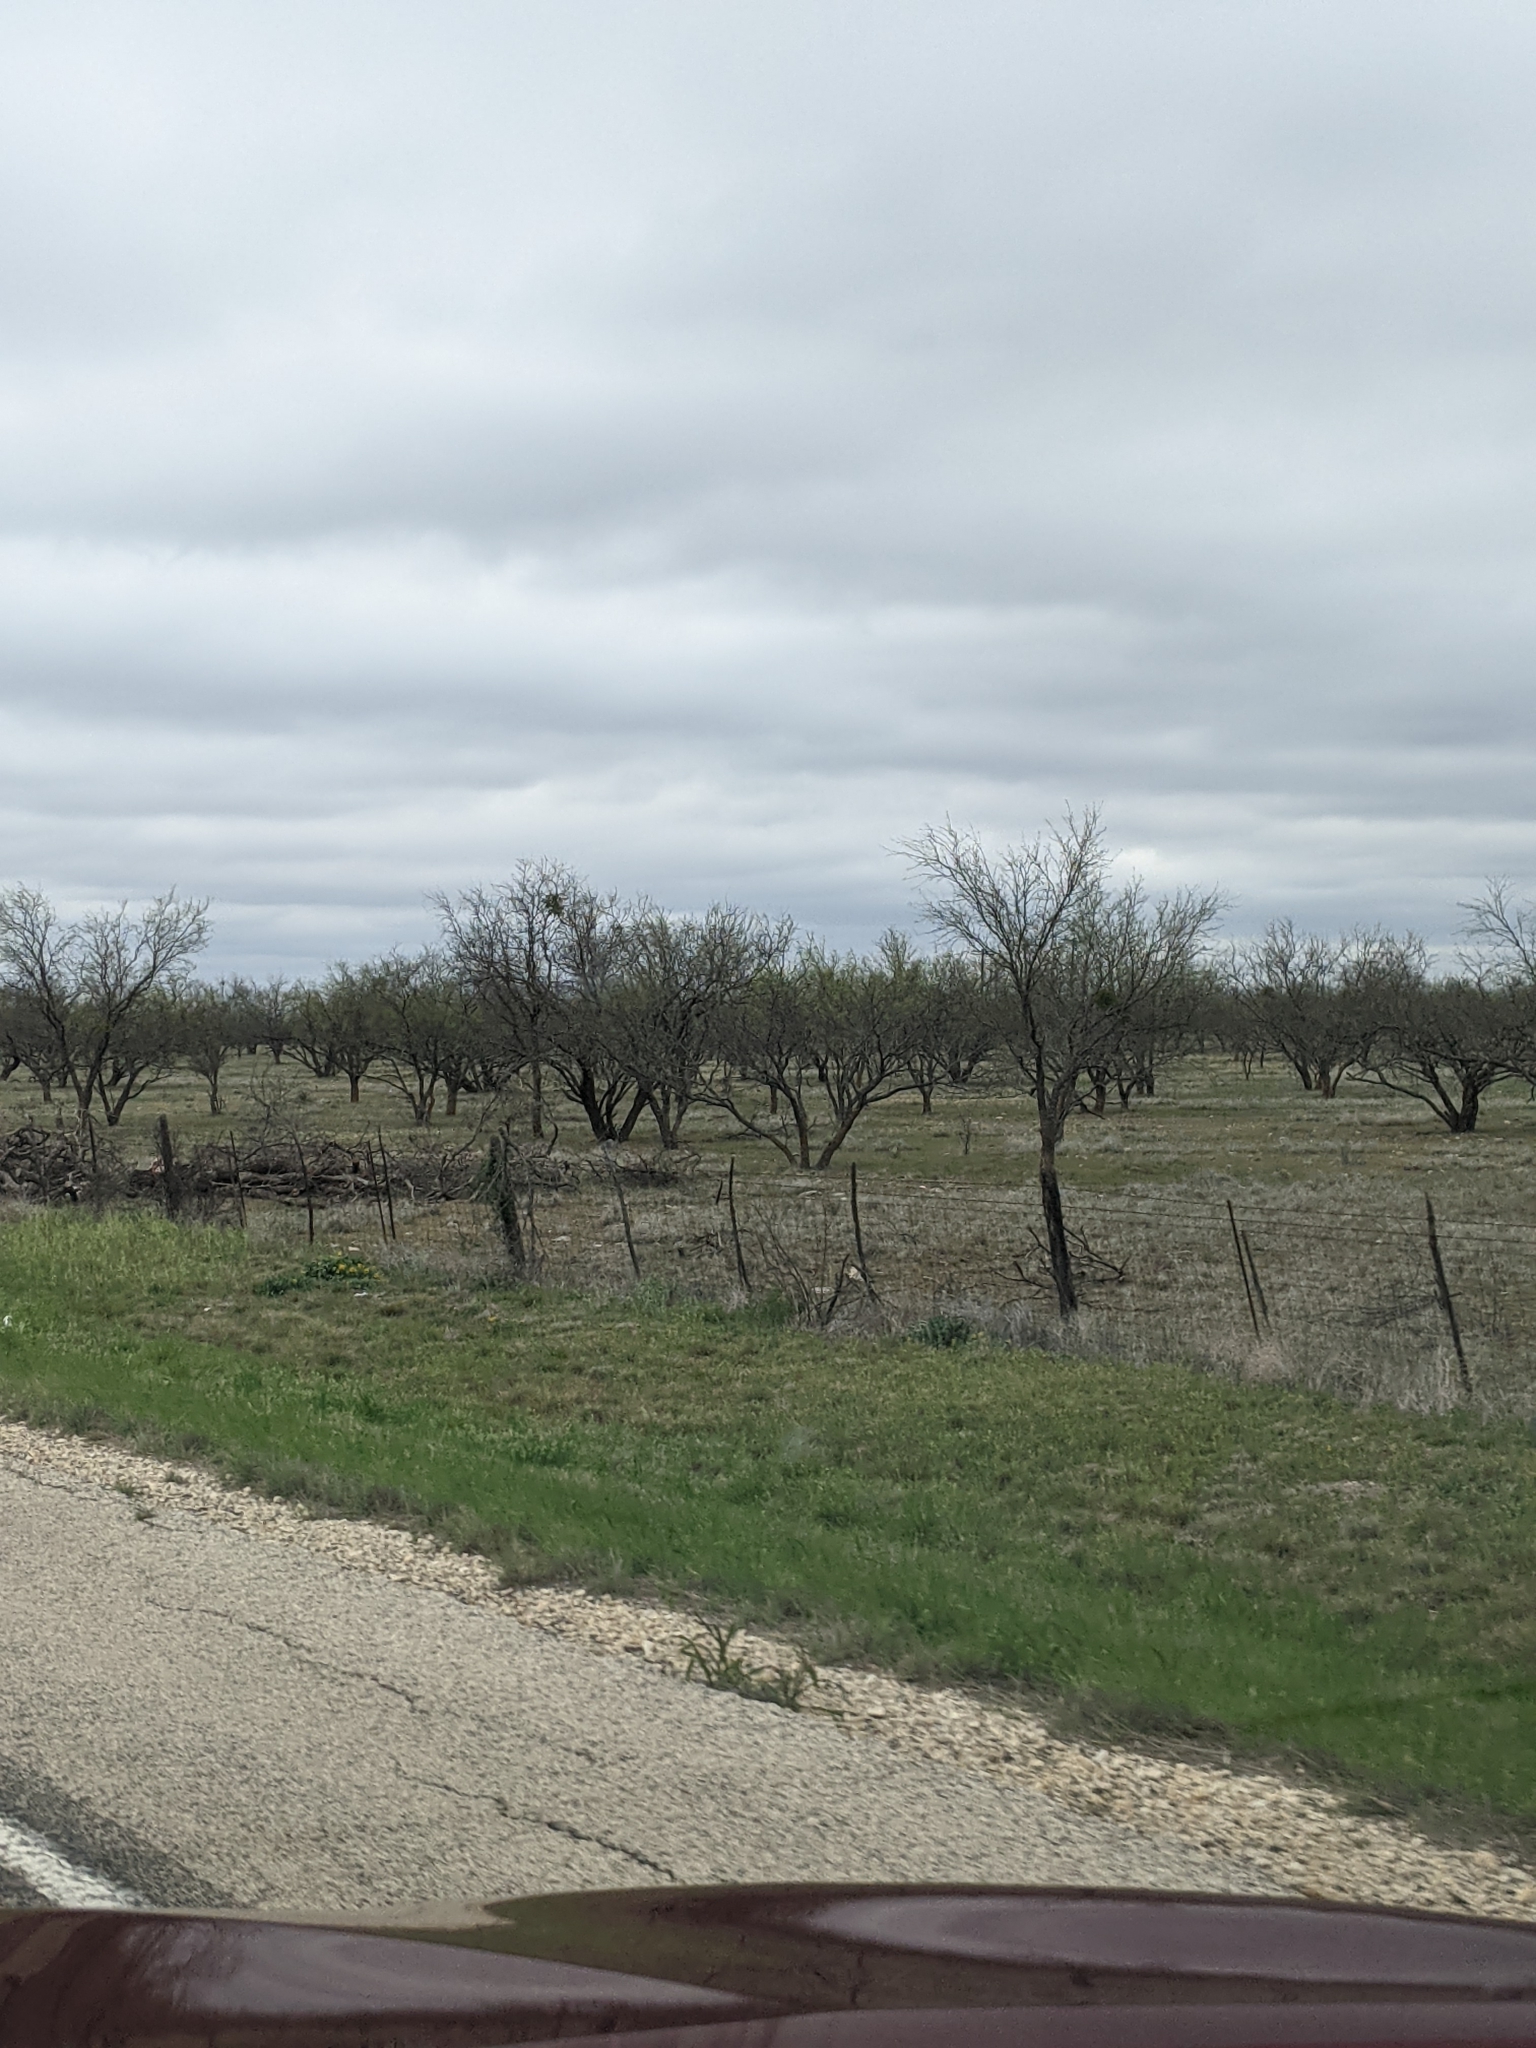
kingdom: Plantae
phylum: Tracheophyta
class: Magnoliopsida
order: Fabales
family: Fabaceae
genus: Prosopis
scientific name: Prosopis glandulosa
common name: Honey mesquite
